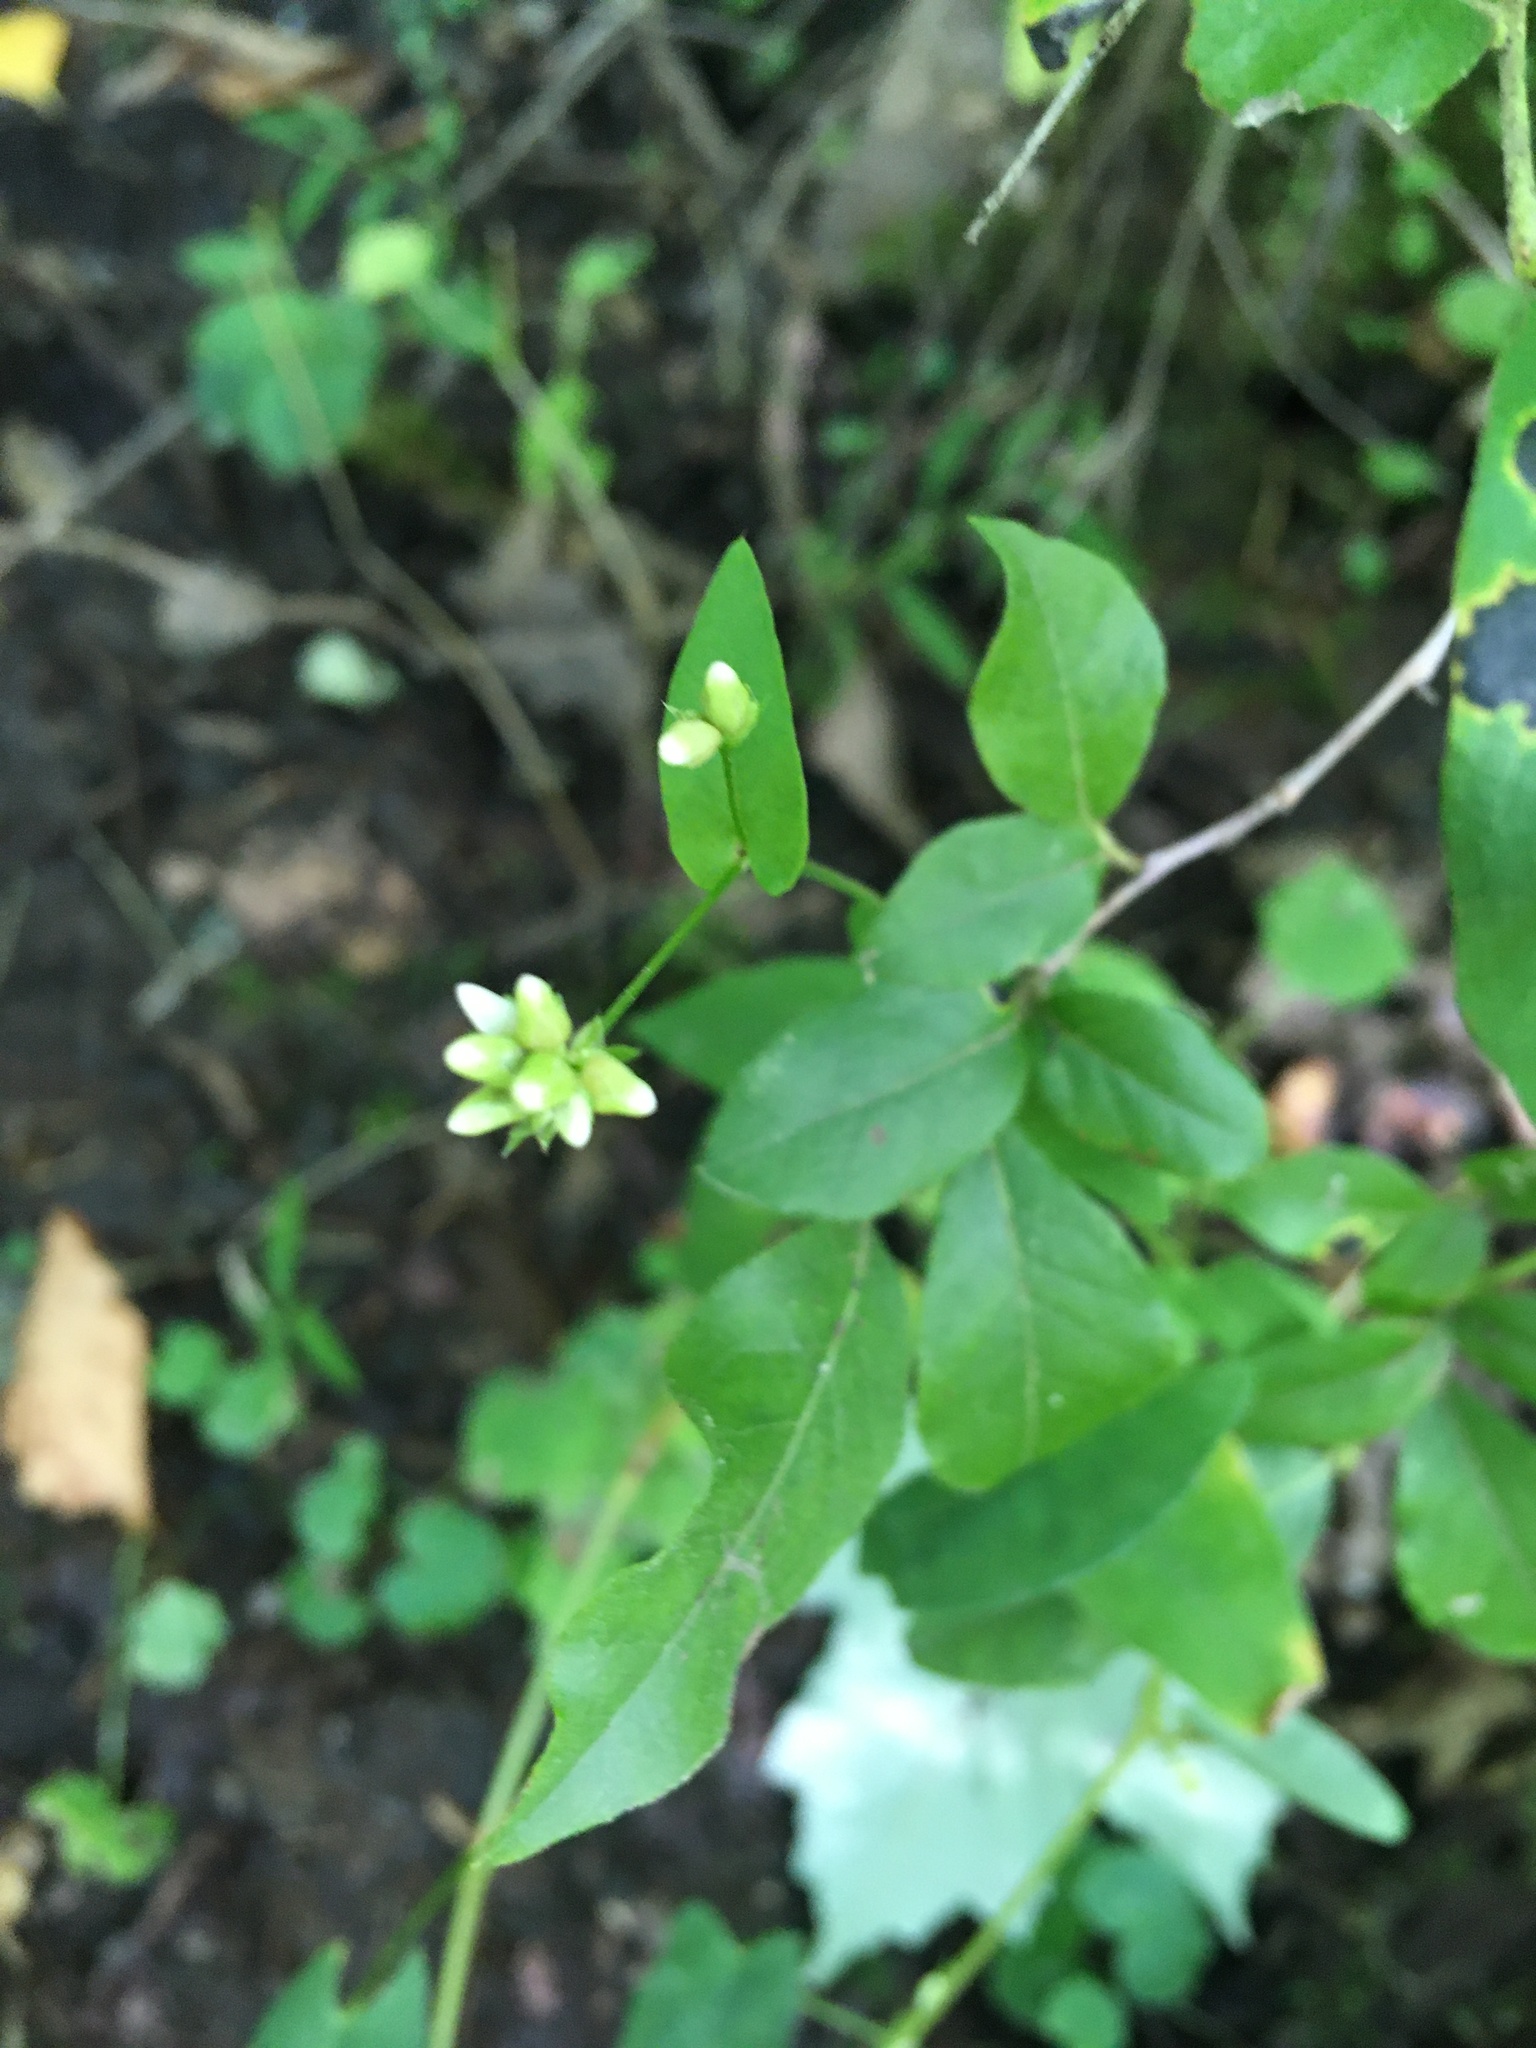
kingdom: Plantae
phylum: Tracheophyta
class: Magnoliopsida
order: Caryophyllales
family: Polygonaceae
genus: Persicaria
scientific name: Persicaria sagittata
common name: American tearthumb
